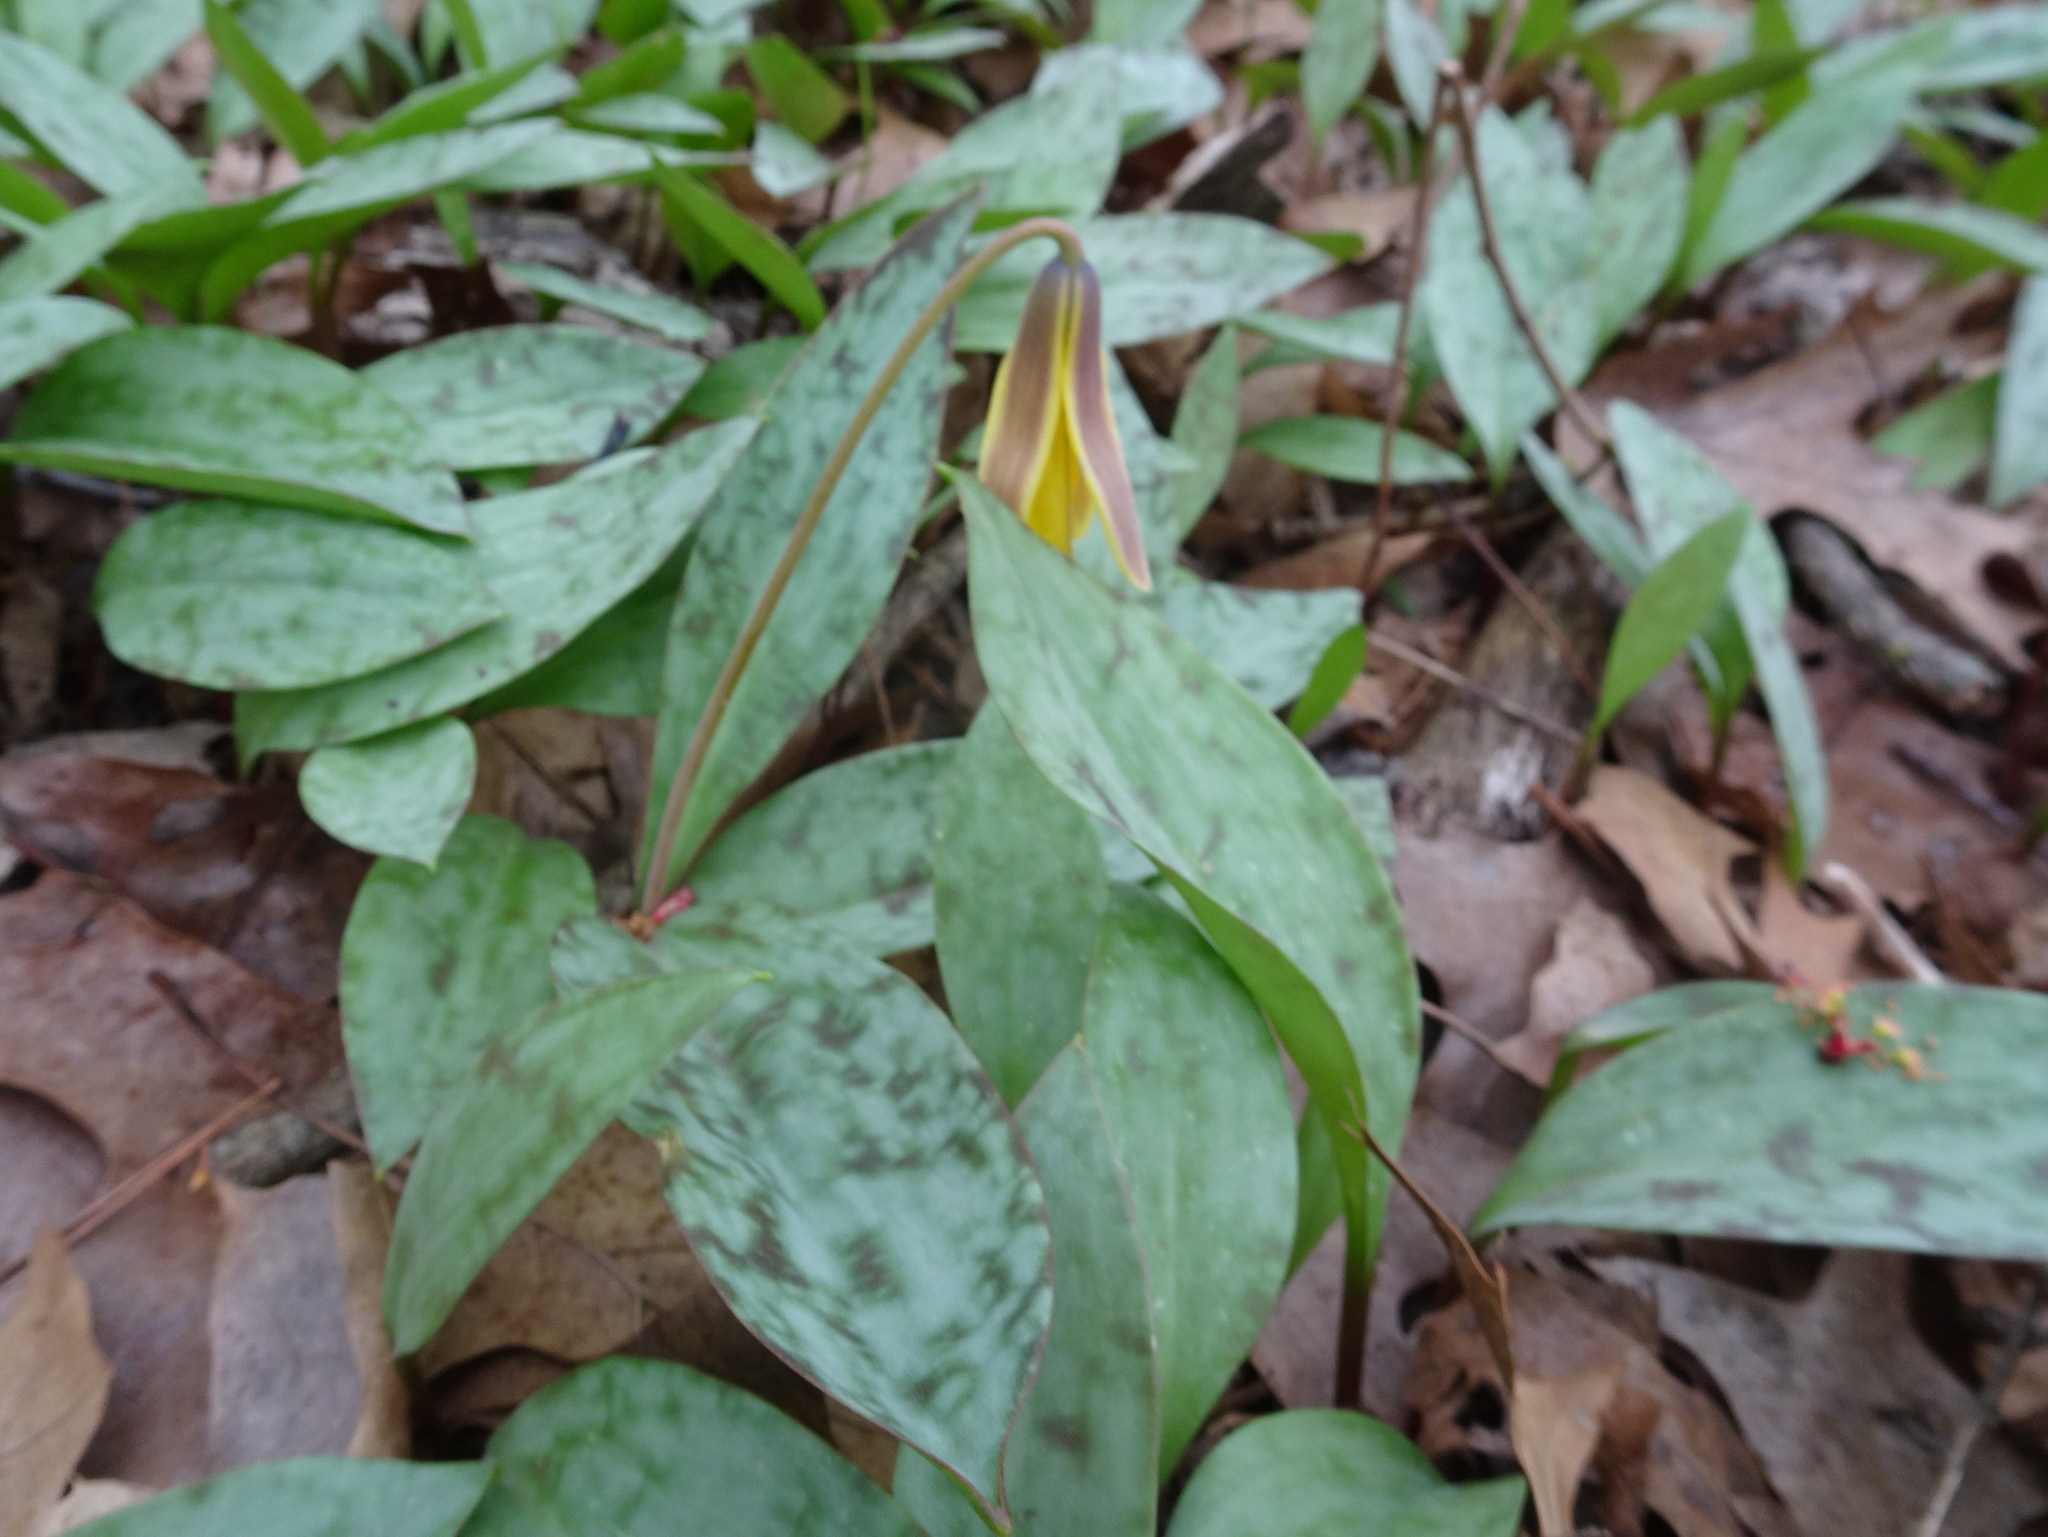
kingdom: Plantae
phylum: Tracheophyta
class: Liliopsida
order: Liliales
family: Liliaceae
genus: Erythronium
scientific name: Erythronium americanum
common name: Yellow adder's-tongue
